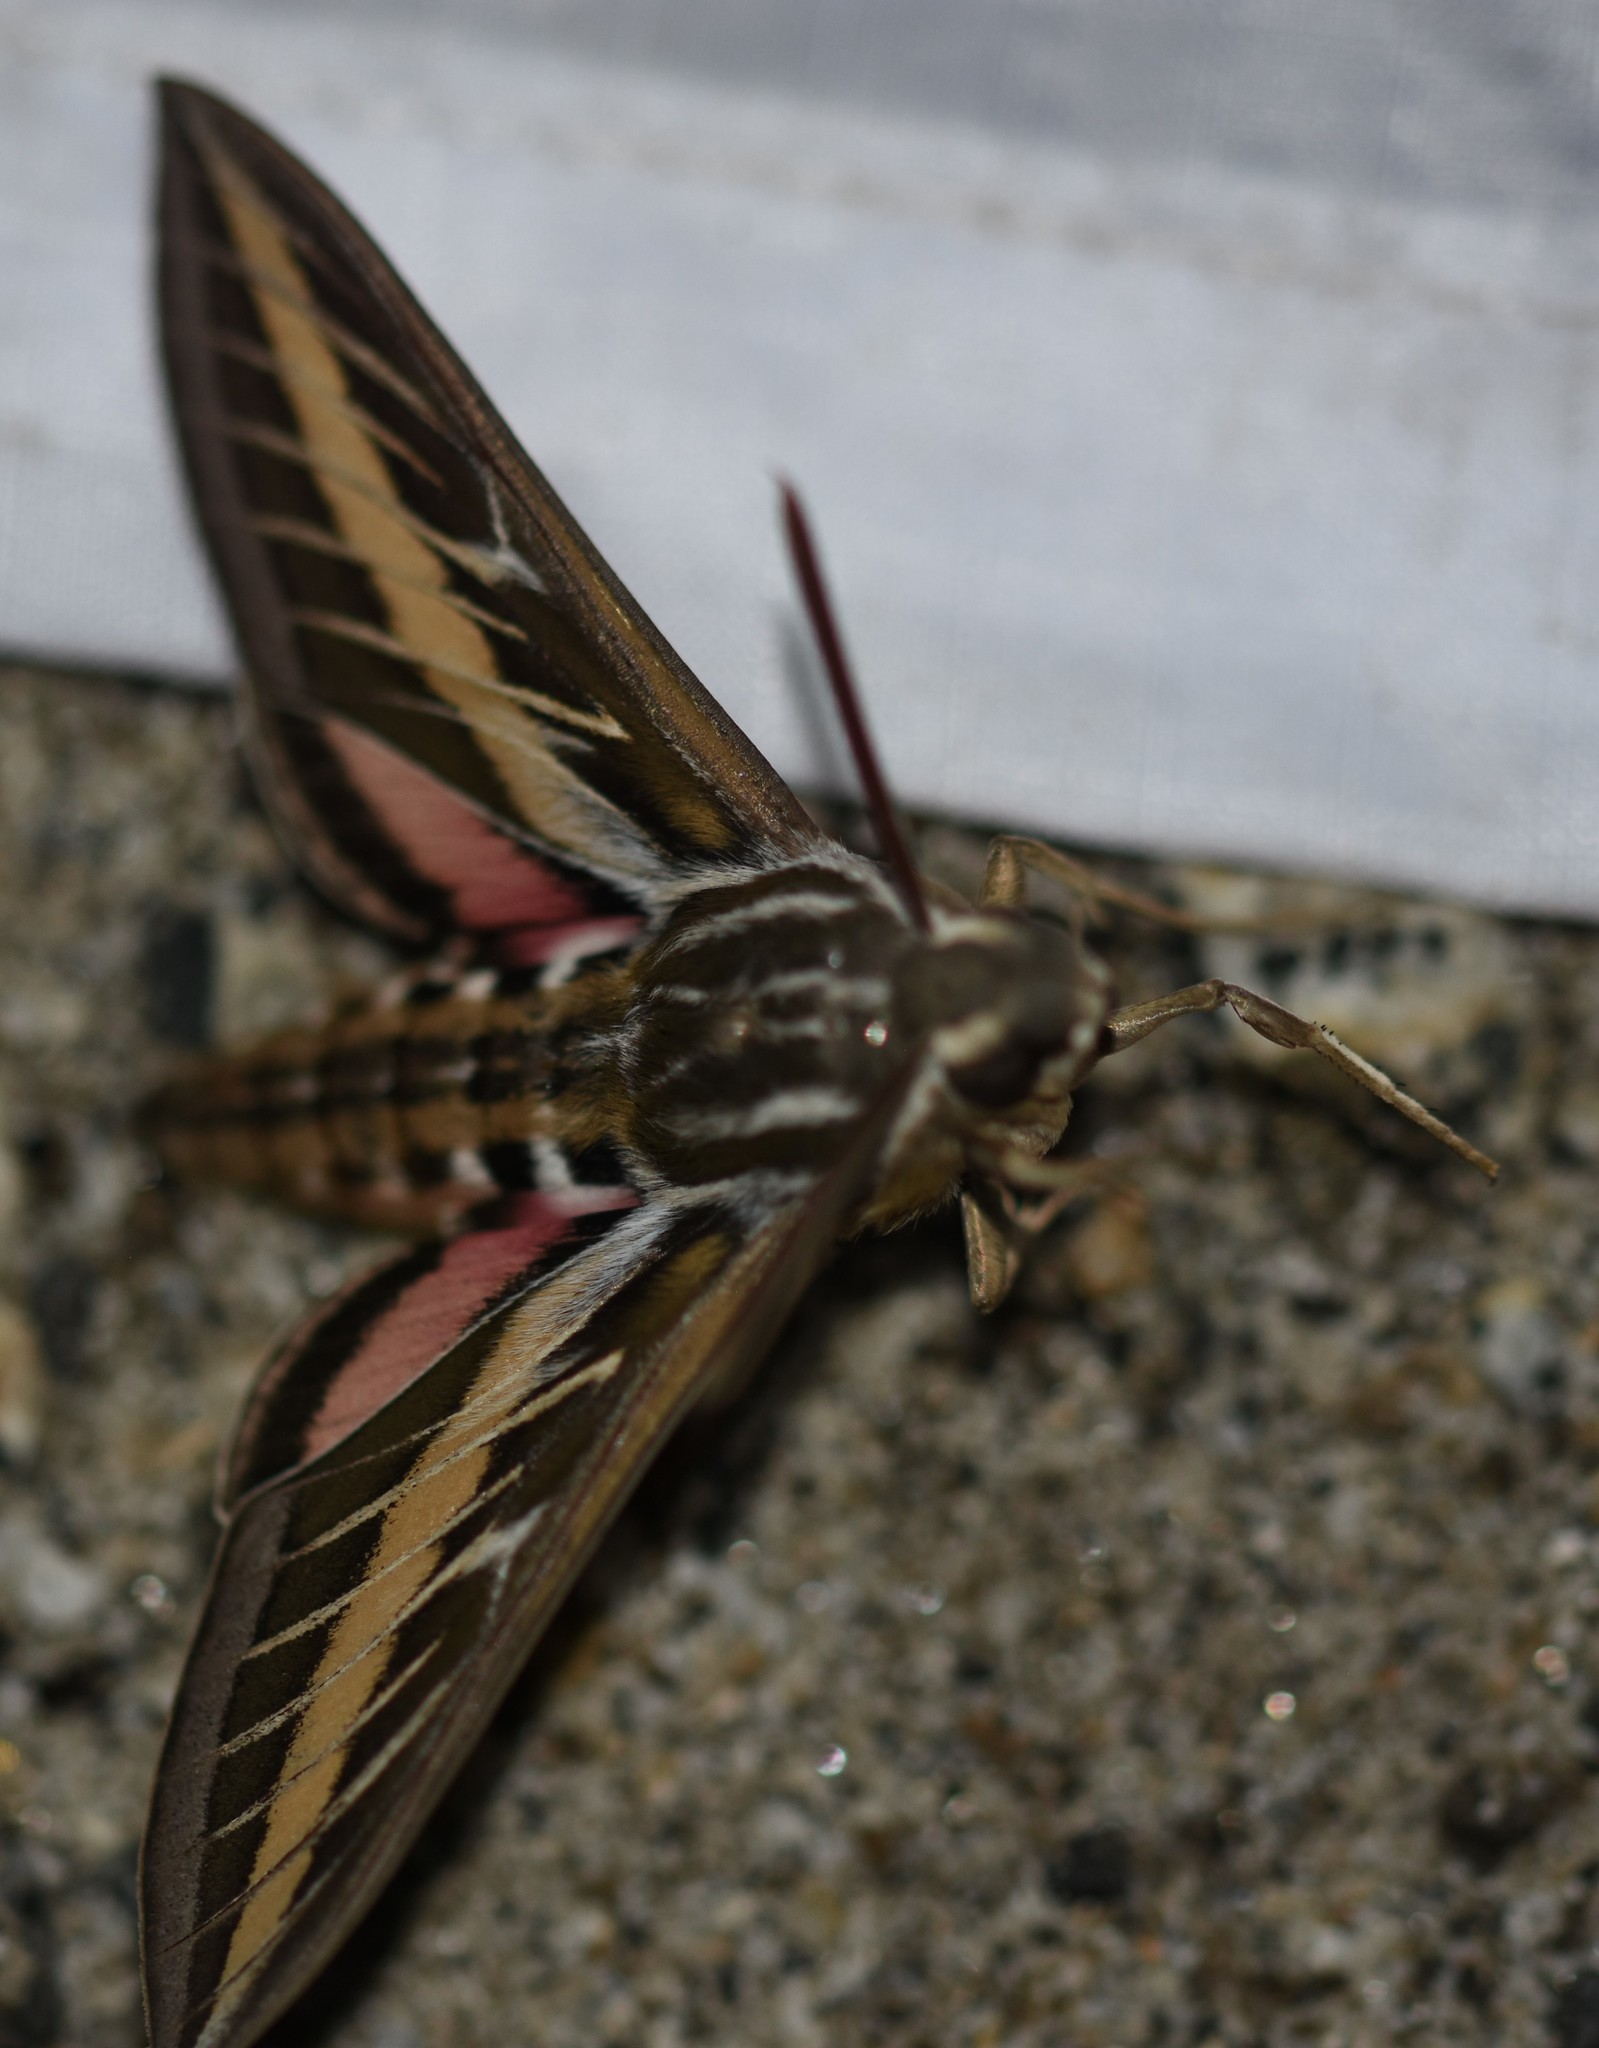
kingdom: Animalia
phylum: Arthropoda
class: Insecta
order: Lepidoptera
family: Sphingidae
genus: Hyles
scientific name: Hyles lineata
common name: White-lined sphinx
